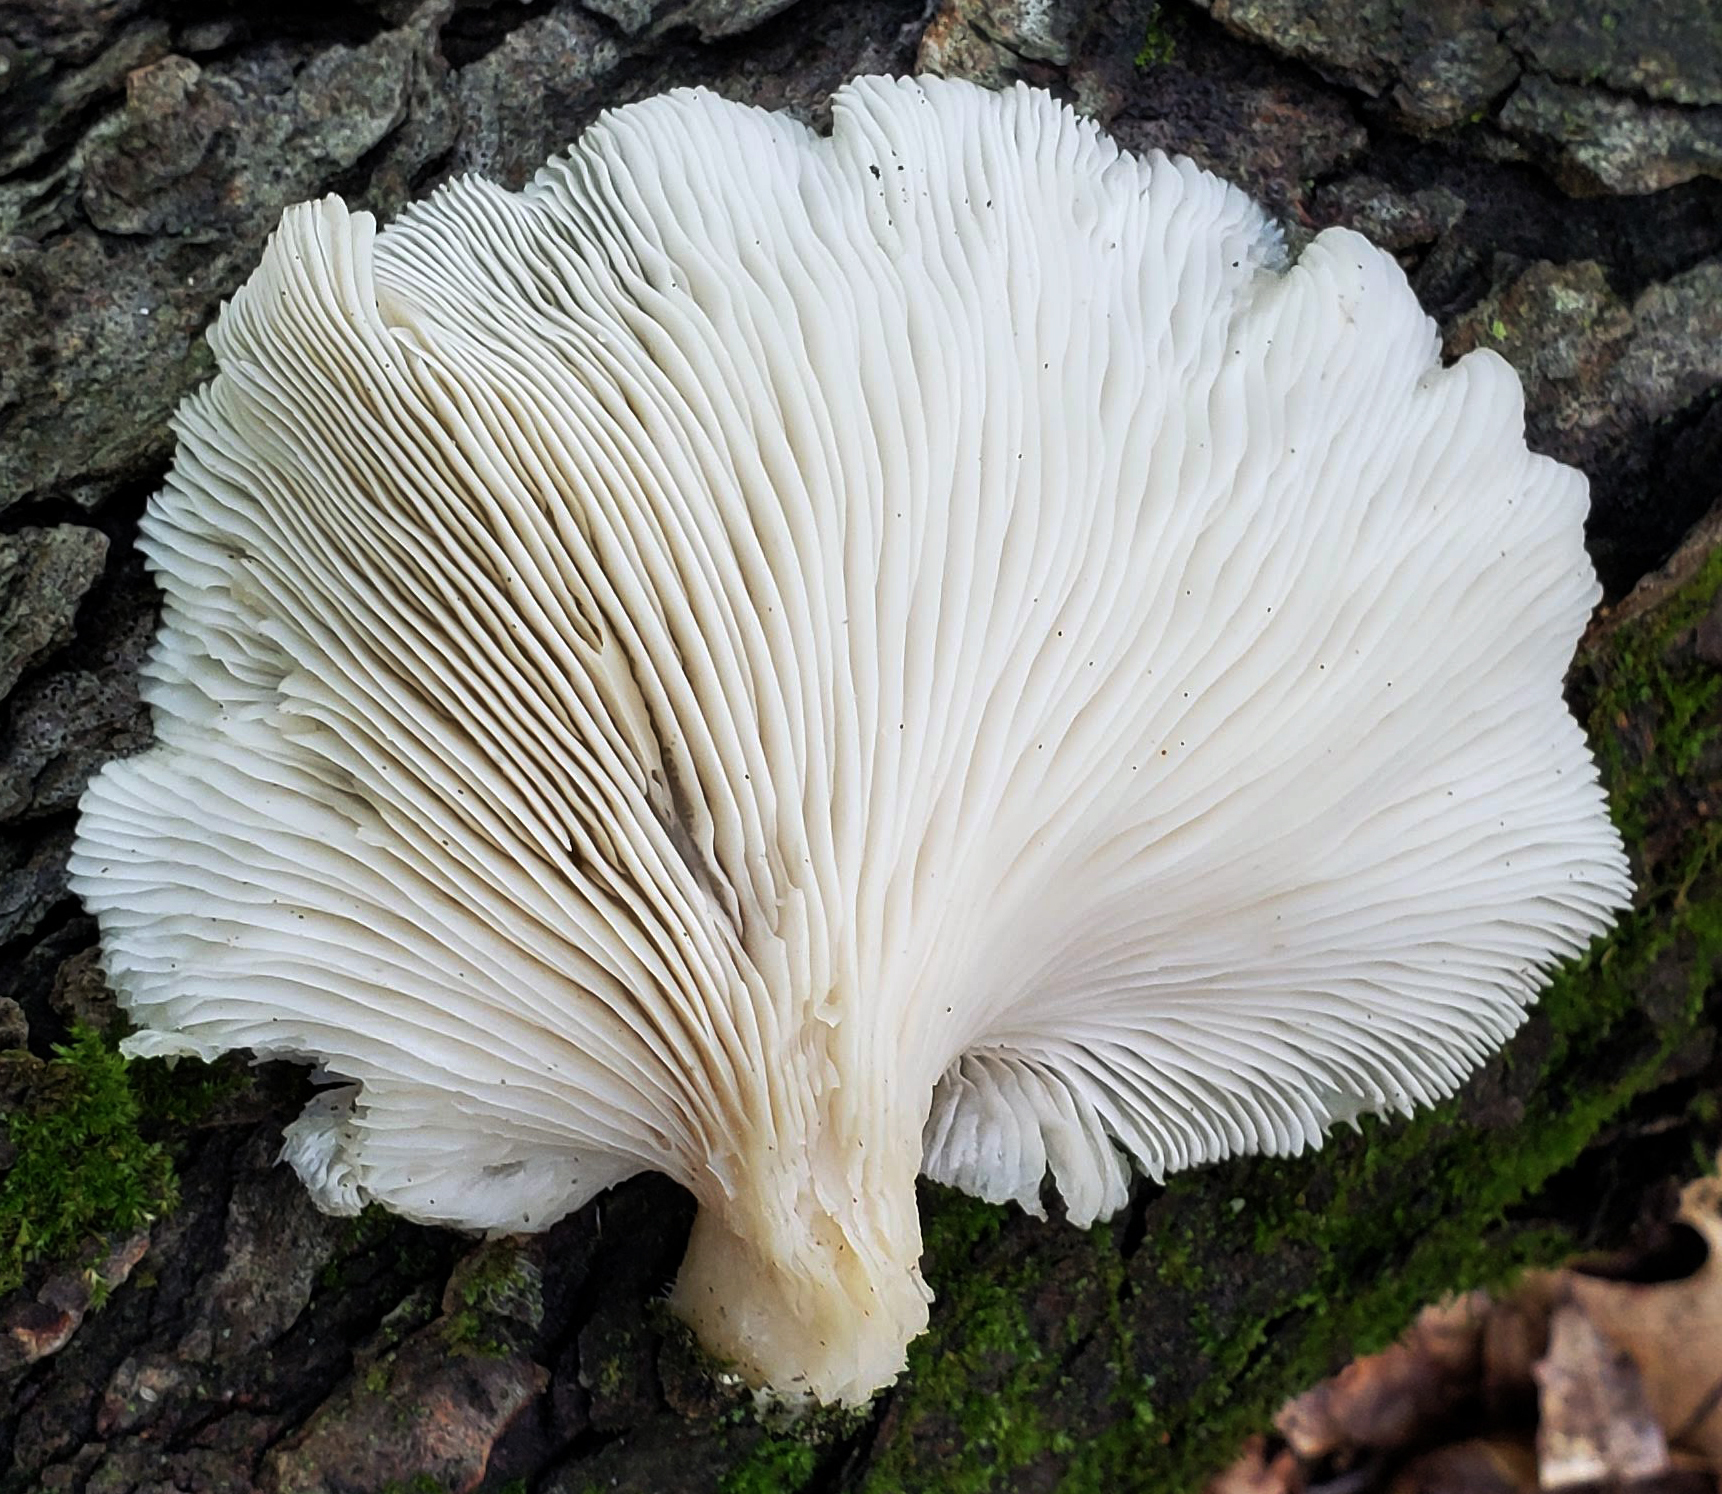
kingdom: Fungi
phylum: Basidiomycota
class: Agaricomycetes
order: Agaricales
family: Pleurotaceae
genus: Pleurotus
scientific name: Pleurotus pulmonarius
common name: Pale oyster
